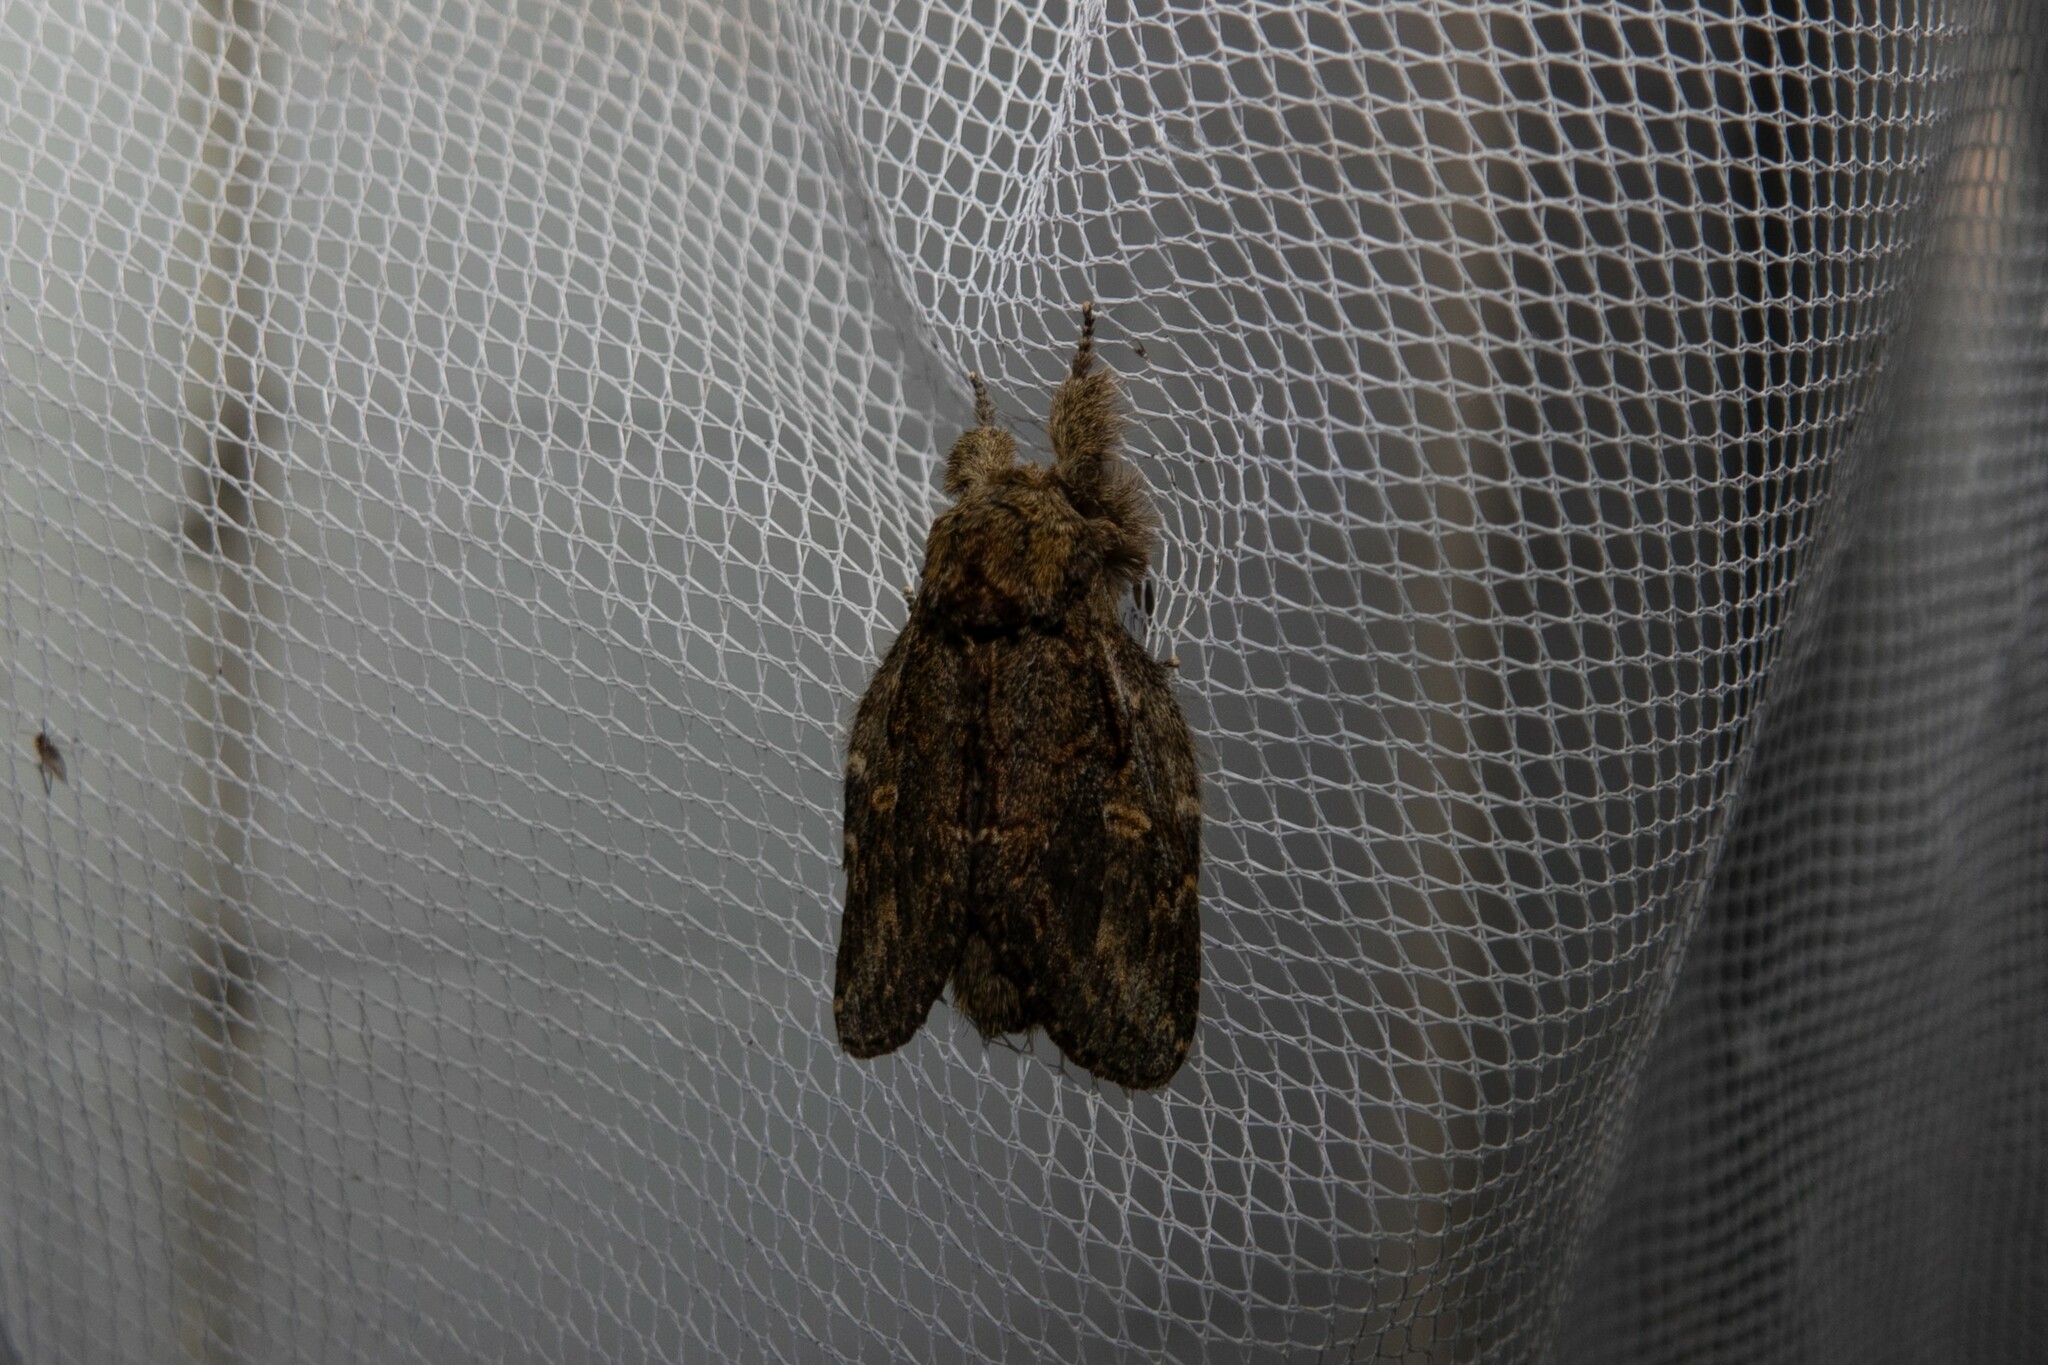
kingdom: Animalia
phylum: Arthropoda
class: Insecta
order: Lepidoptera
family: Notodontidae
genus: Peridea
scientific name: Peridea anceps
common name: Great prominent
